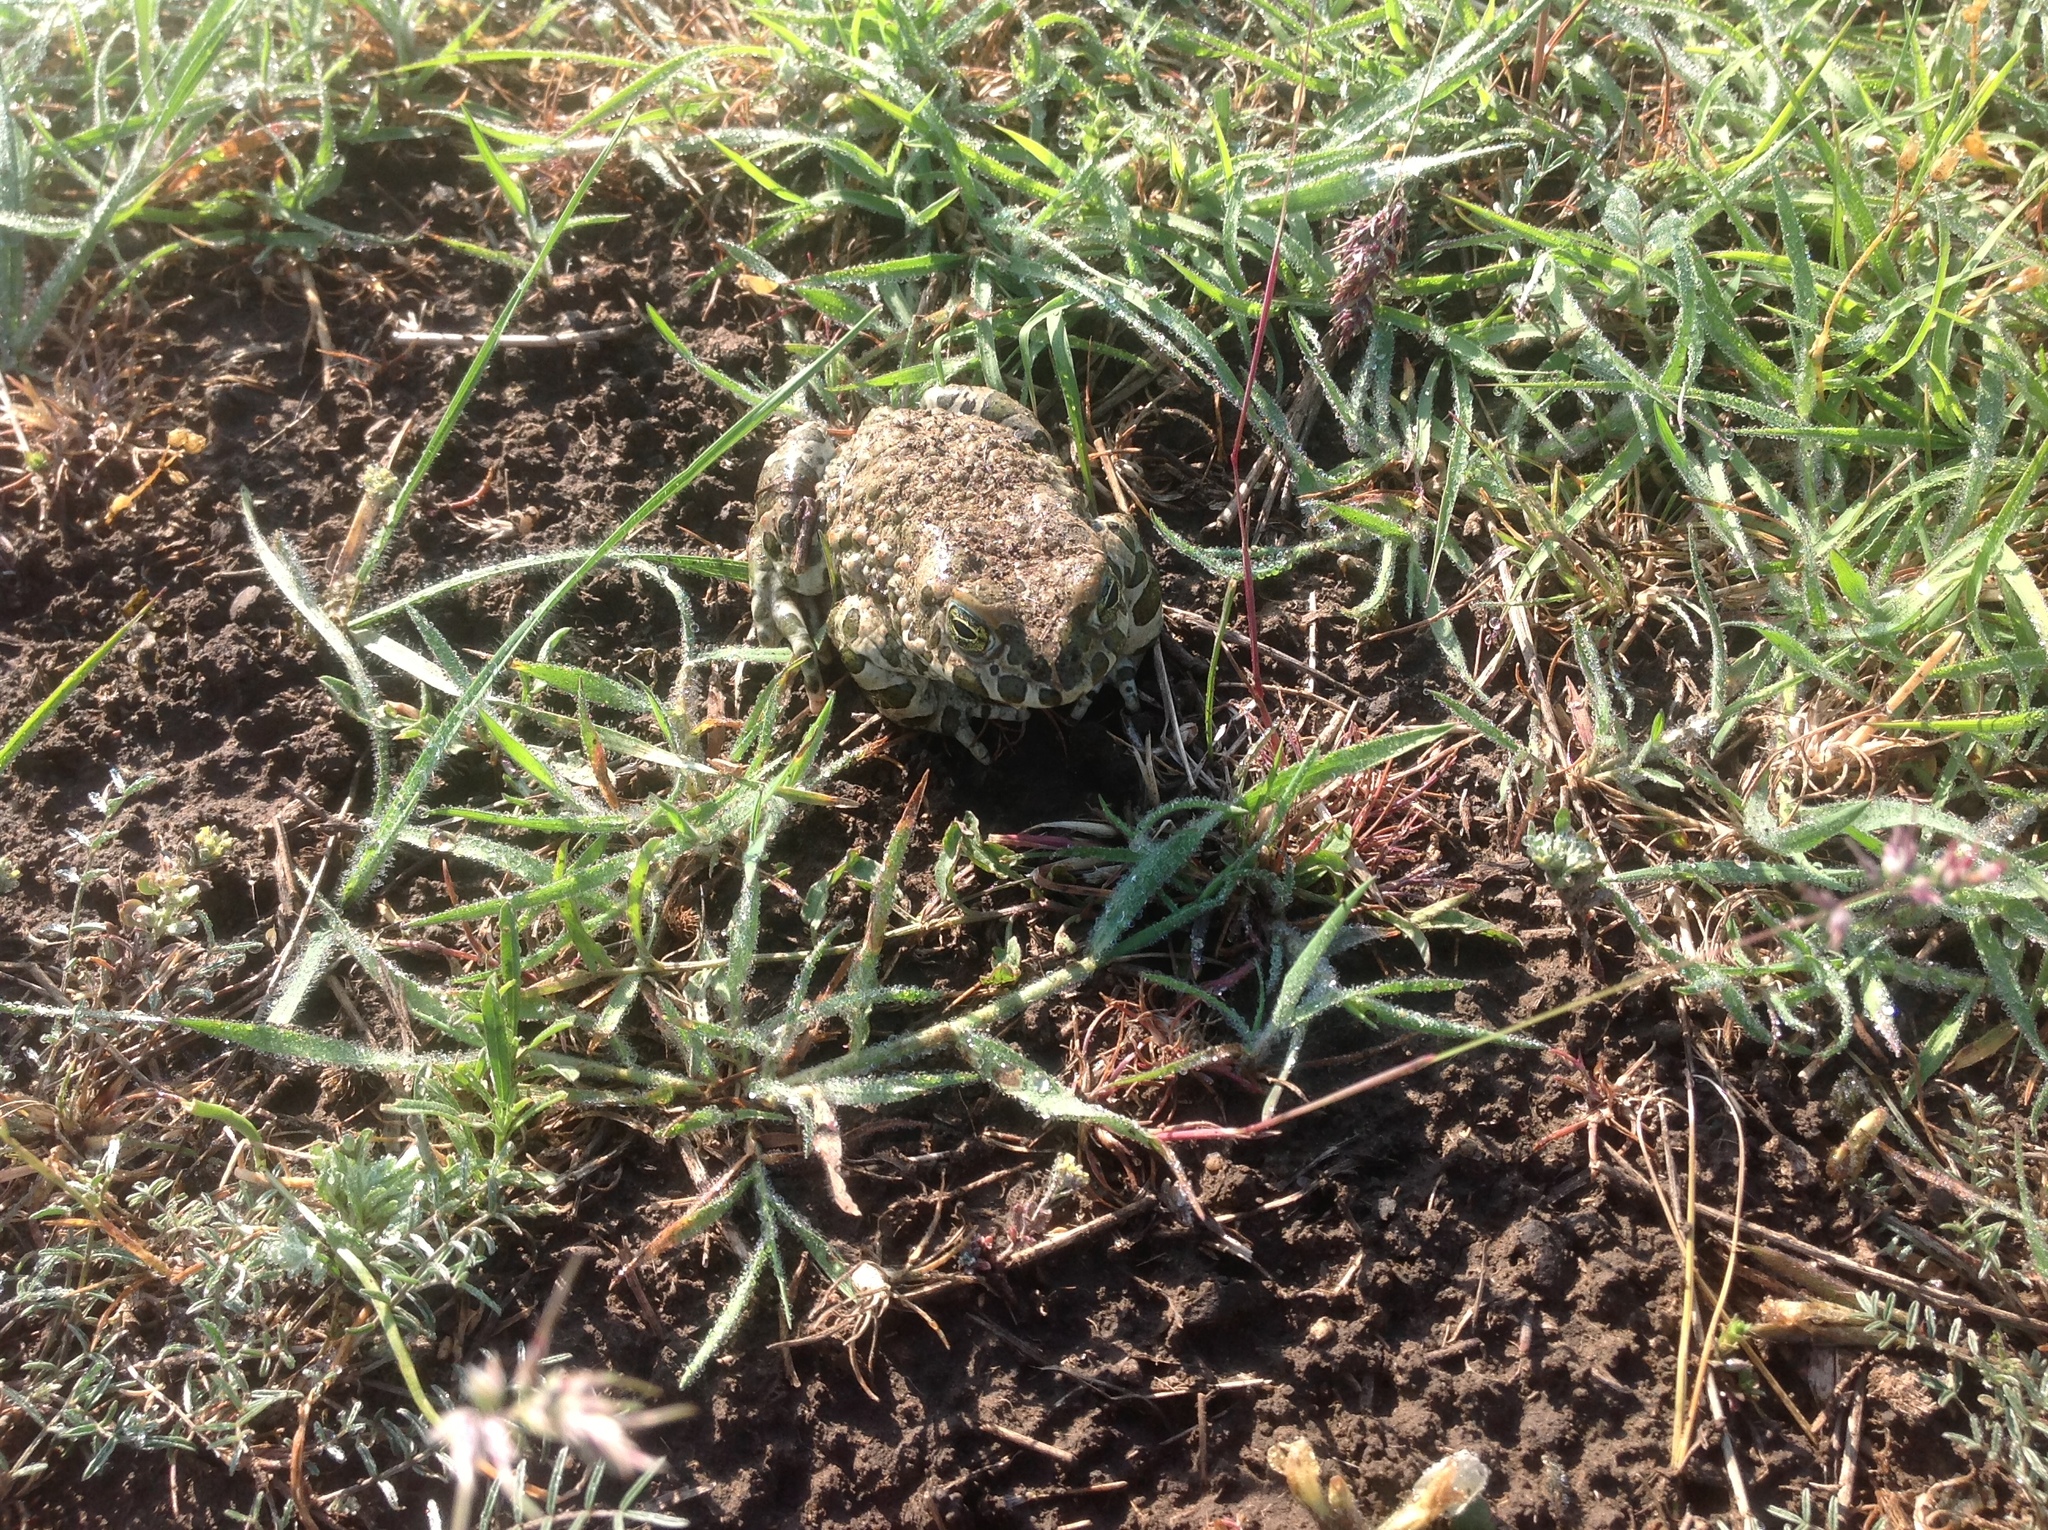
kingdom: Animalia
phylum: Chordata
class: Amphibia
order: Anura
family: Bufonidae
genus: Bufotes
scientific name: Bufotes viridis
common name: European green toad
